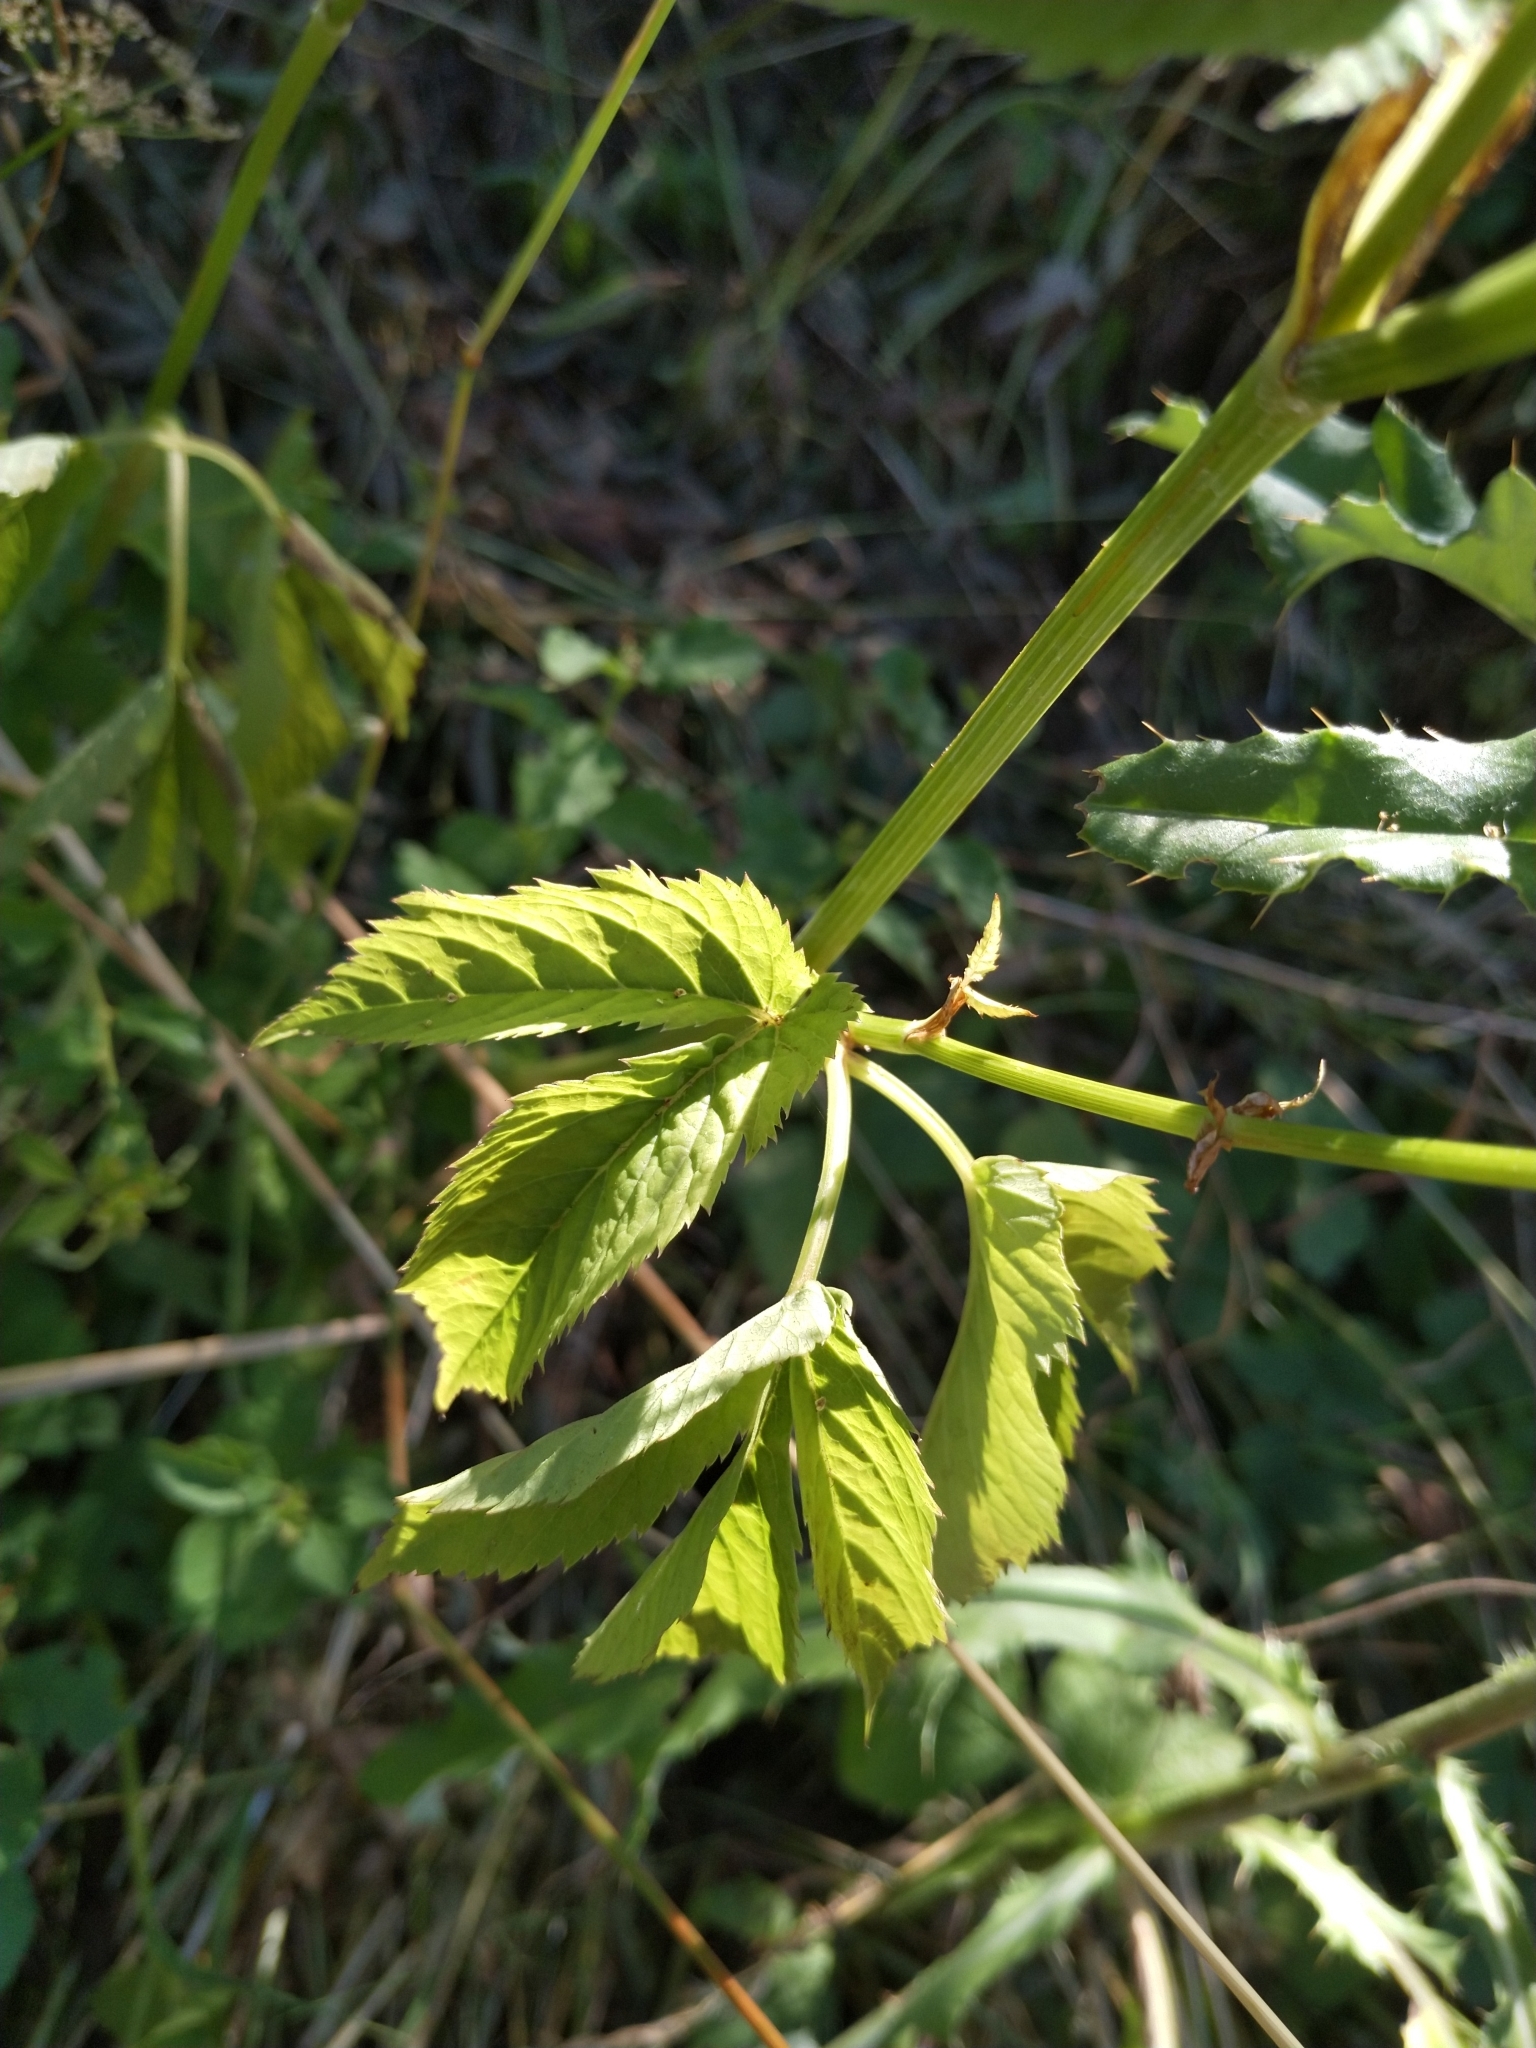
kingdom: Plantae
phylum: Tracheophyta
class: Magnoliopsida
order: Apiales
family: Apiaceae
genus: Aegopodium
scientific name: Aegopodium podagraria
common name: Ground-elder
